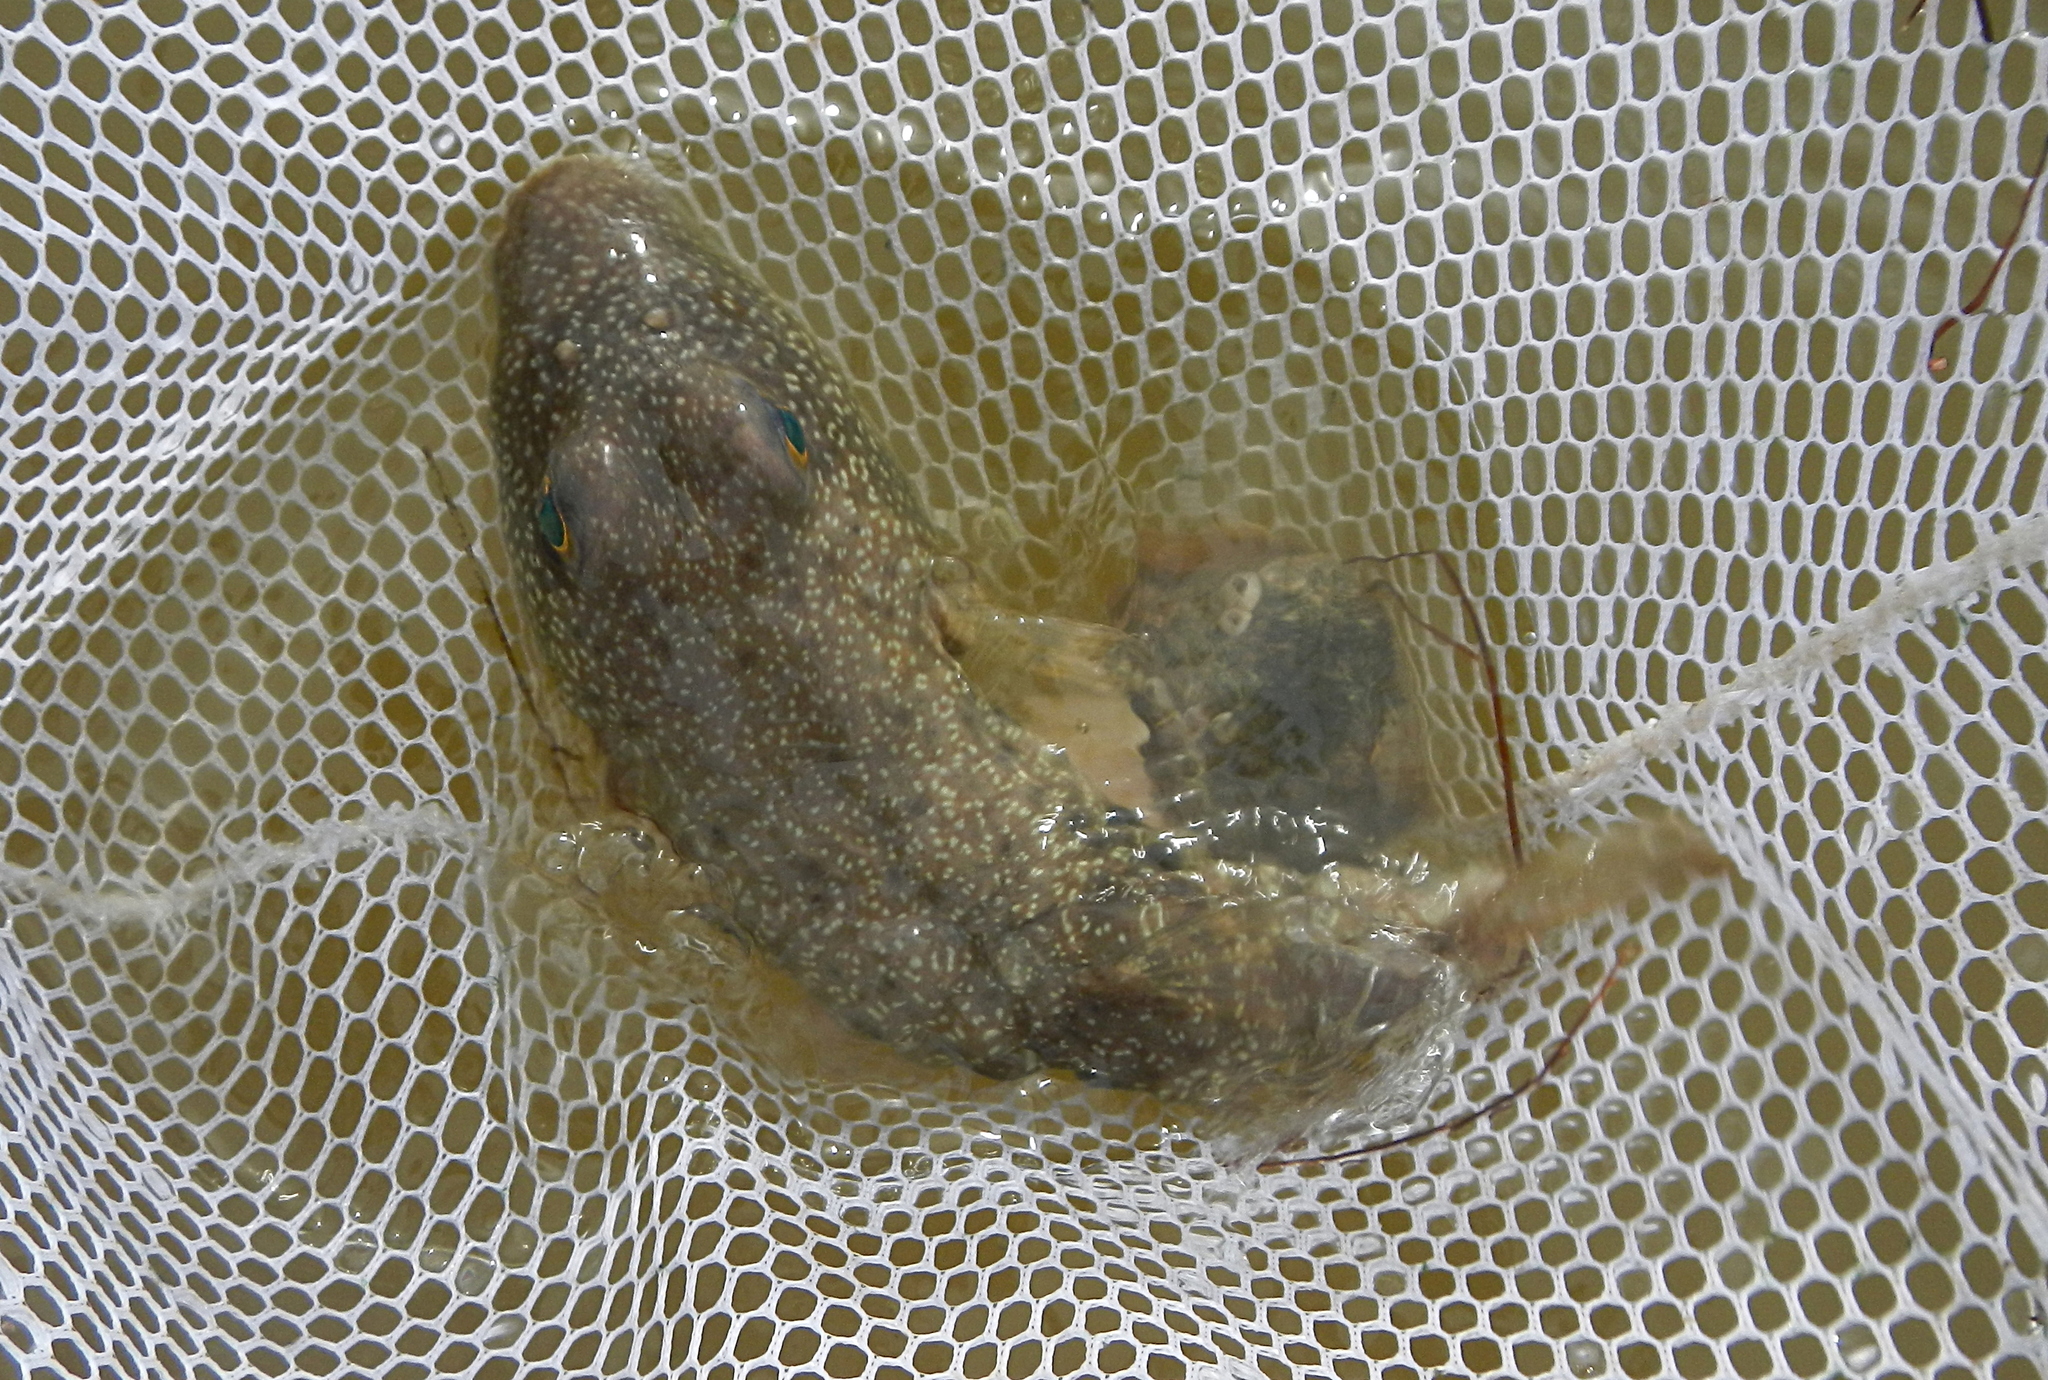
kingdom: Animalia
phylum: Chordata
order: Tetraodontiformes
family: Tetraodontidae
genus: Sphoeroides
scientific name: Sphoeroides nephelus
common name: Southern puffer
